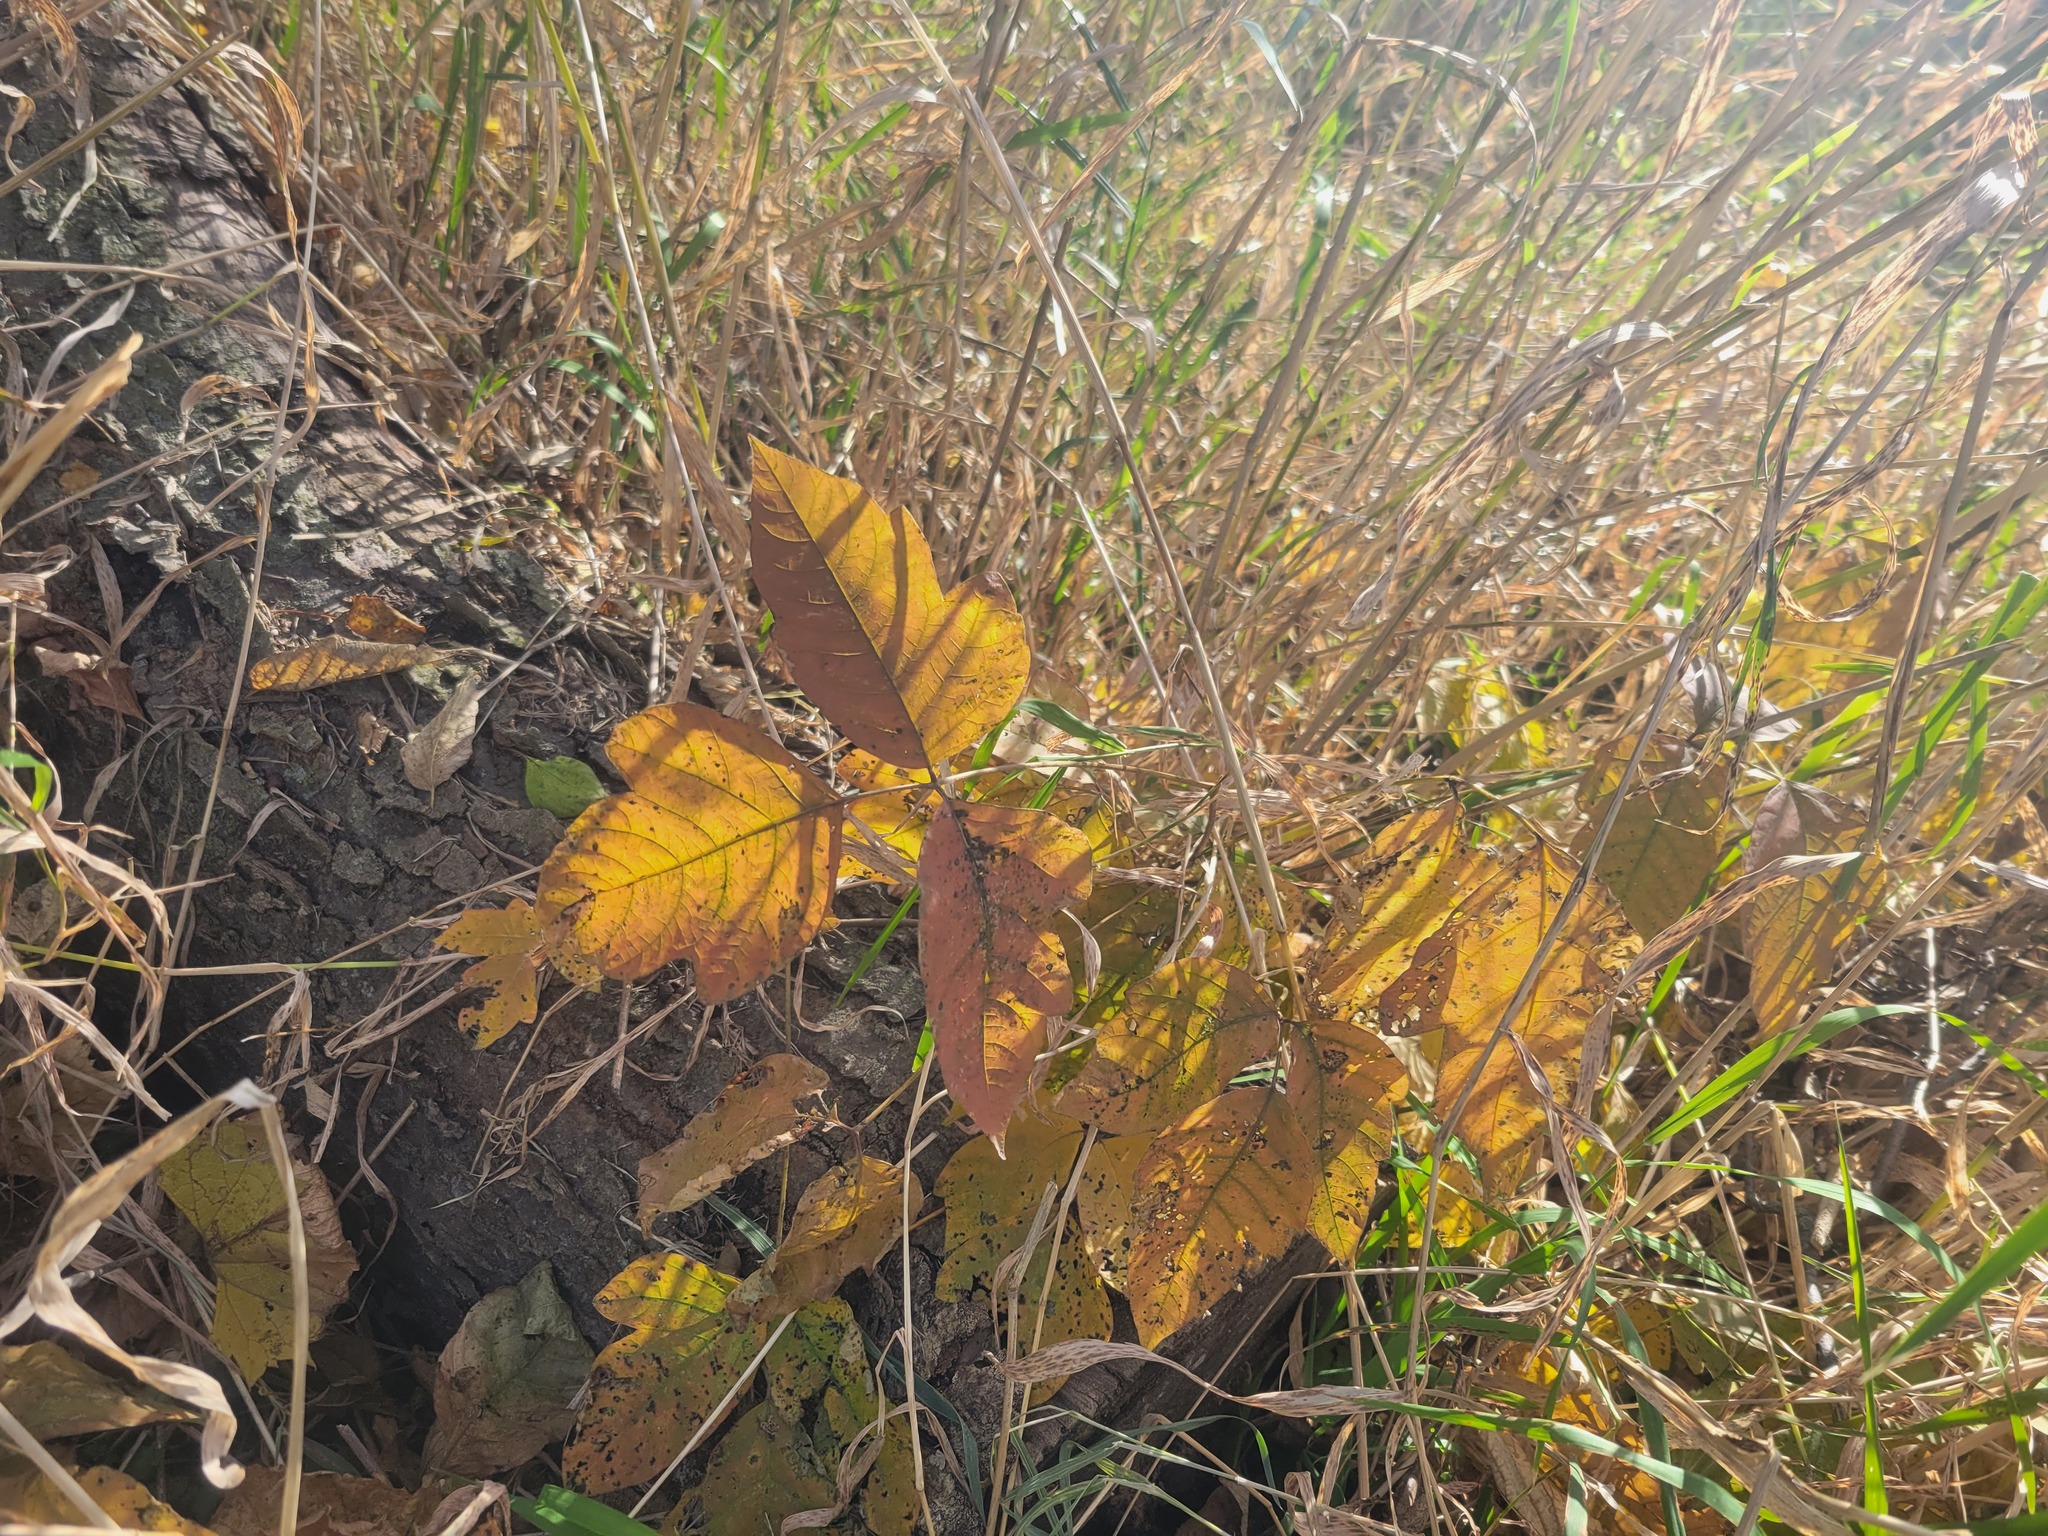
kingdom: Plantae
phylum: Tracheophyta
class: Magnoliopsida
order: Sapindales
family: Anacardiaceae
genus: Toxicodendron
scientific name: Toxicodendron radicans
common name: Poison ivy
